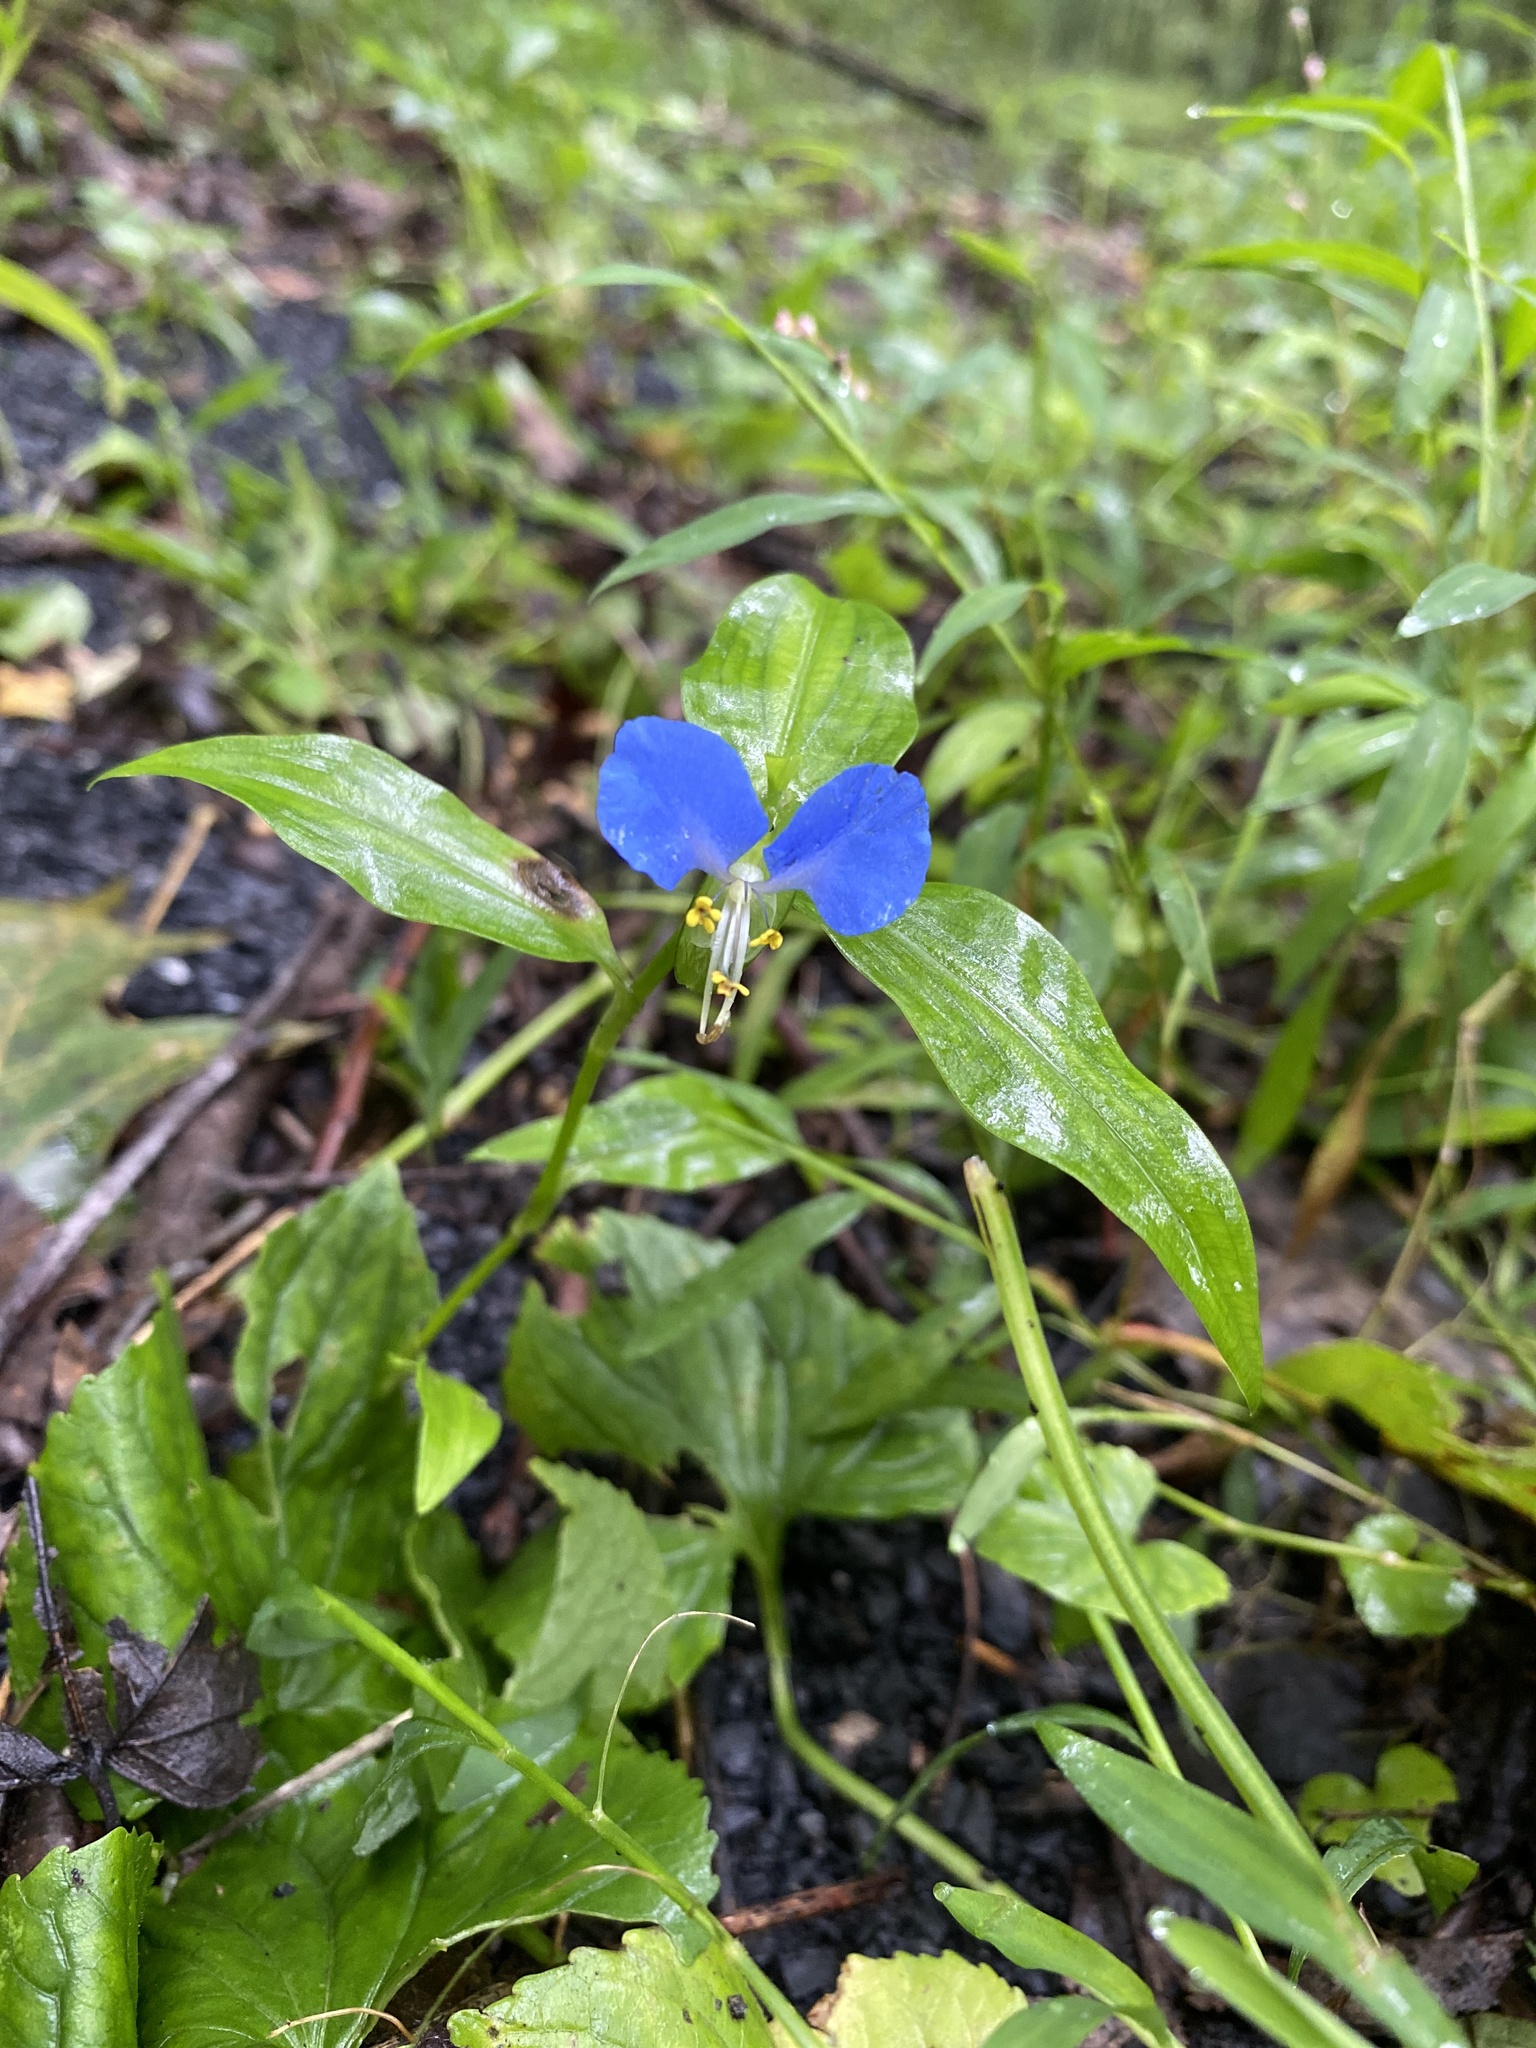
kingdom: Plantae
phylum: Tracheophyta
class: Liliopsida
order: Commelinales
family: Commelinaceae
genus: Commelina
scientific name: Commelina communis
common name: Asiatic dayflower
